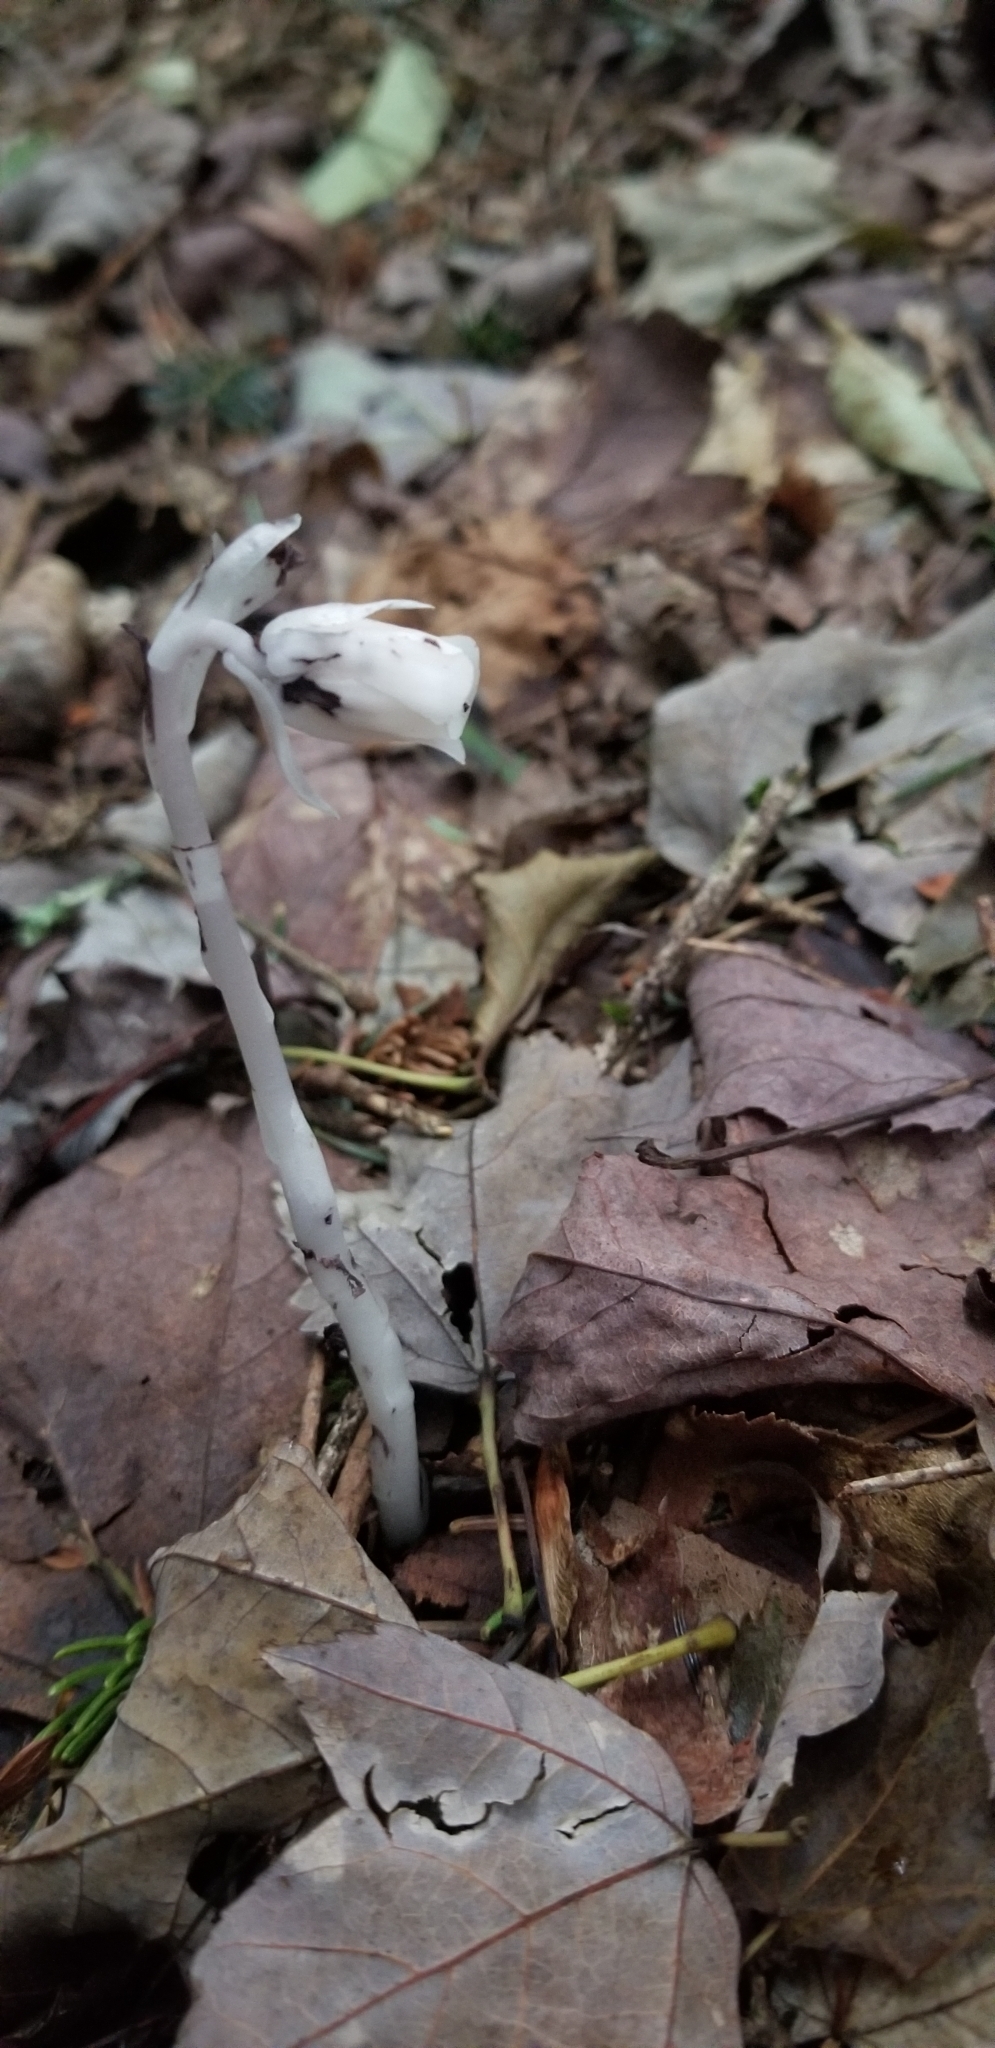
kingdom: Plantae
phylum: Tracheophyta
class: Magnoliopsida
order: Ericales
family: Ericaceae
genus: Monotropa
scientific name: Monotropa uniflora
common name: Convulsion root
